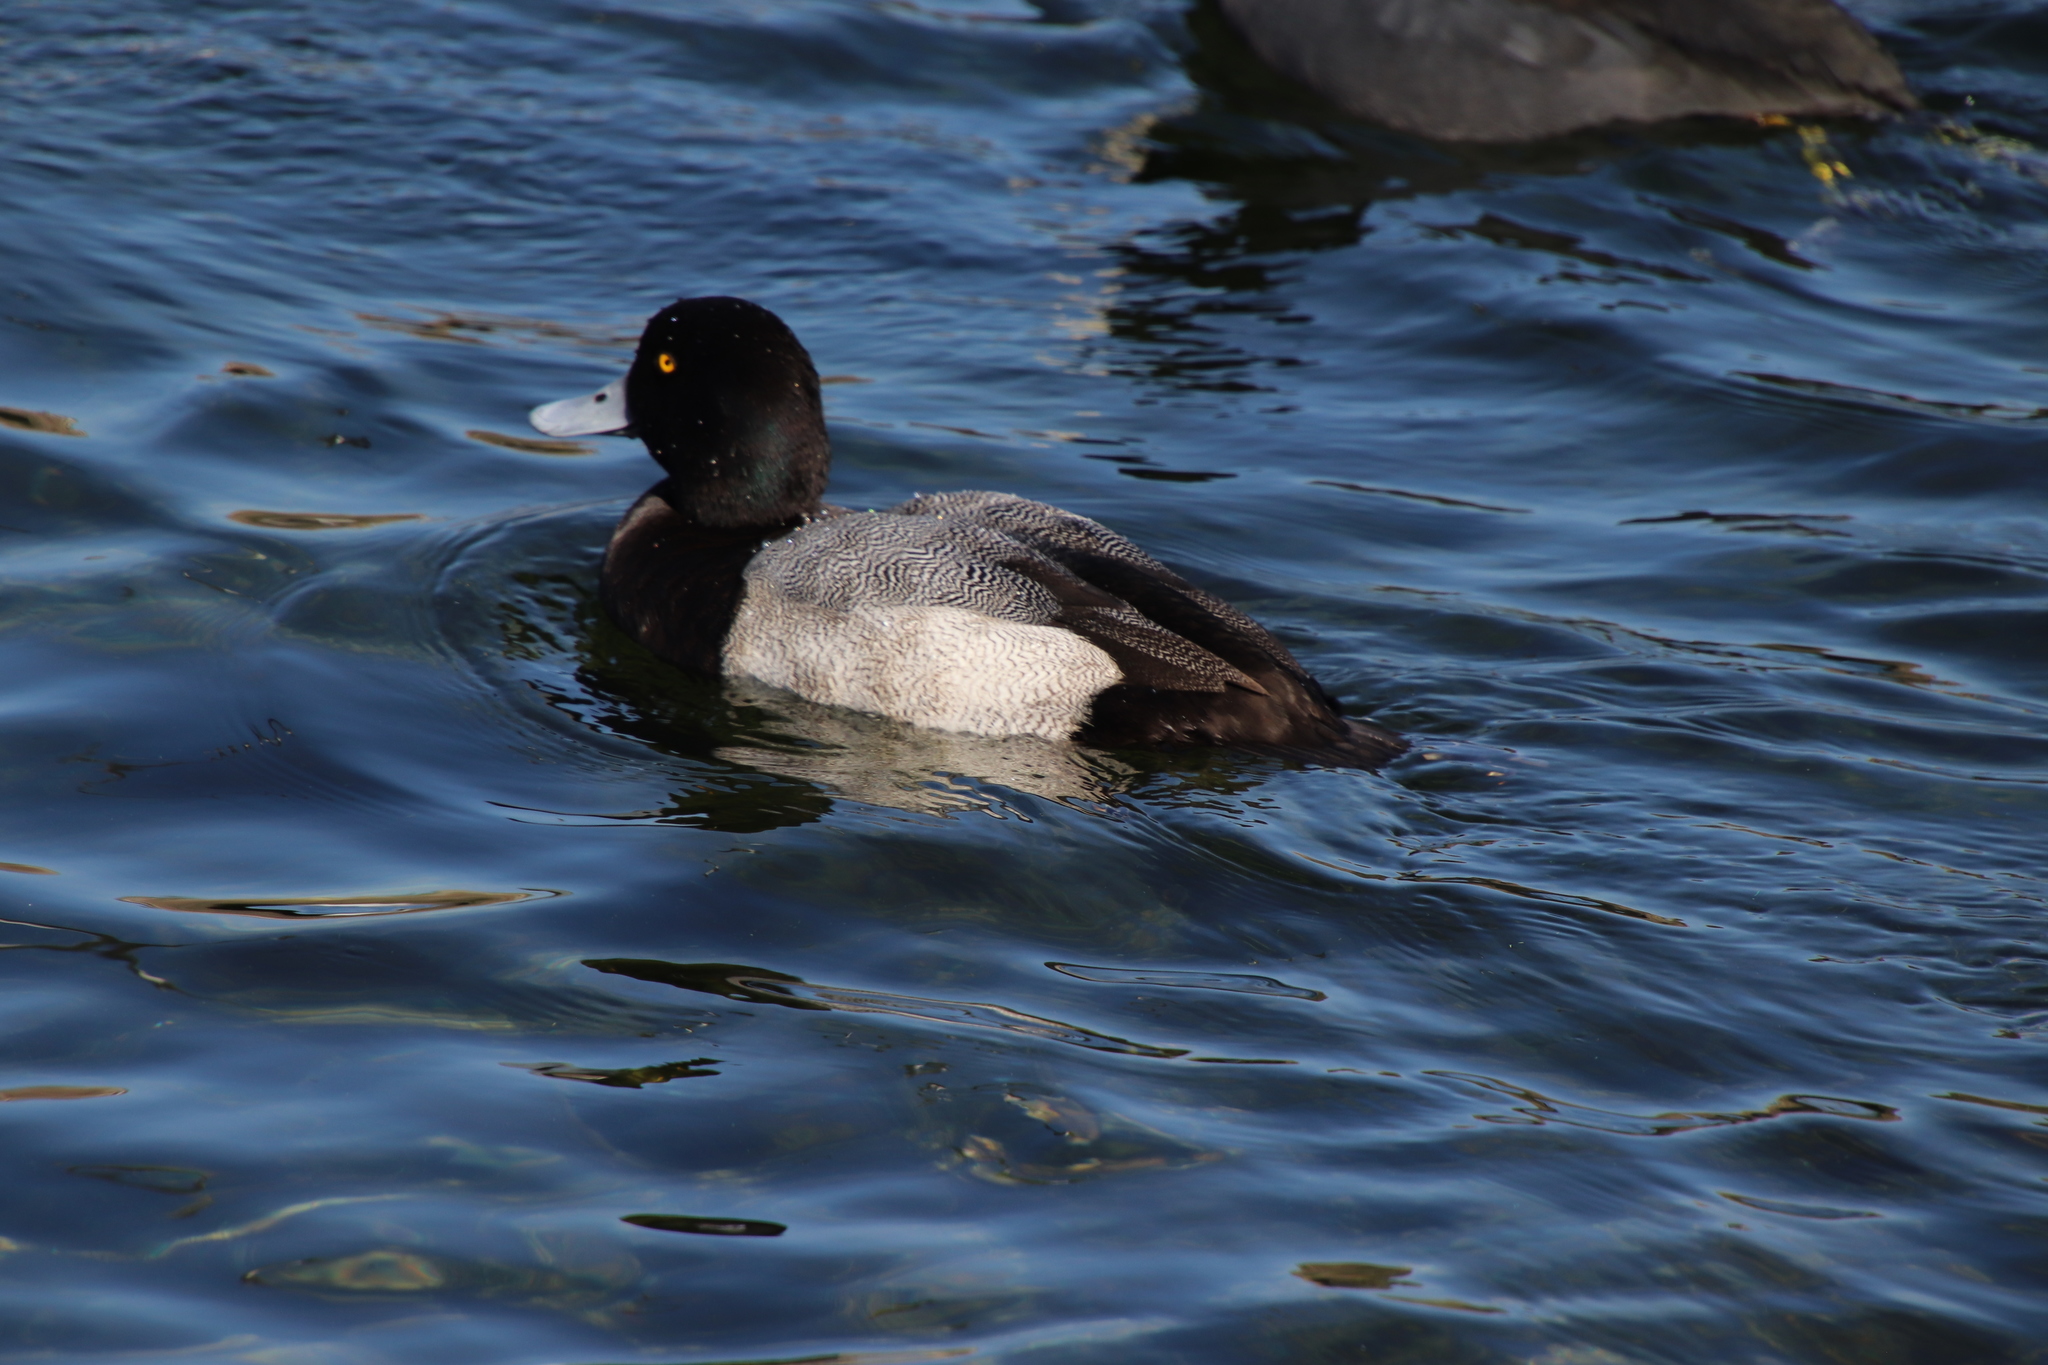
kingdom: Animalia
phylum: Chordata
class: Aves
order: Anseriformes
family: Anatidae
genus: Aythya
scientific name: Aythya affinis
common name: Lesser scaup
